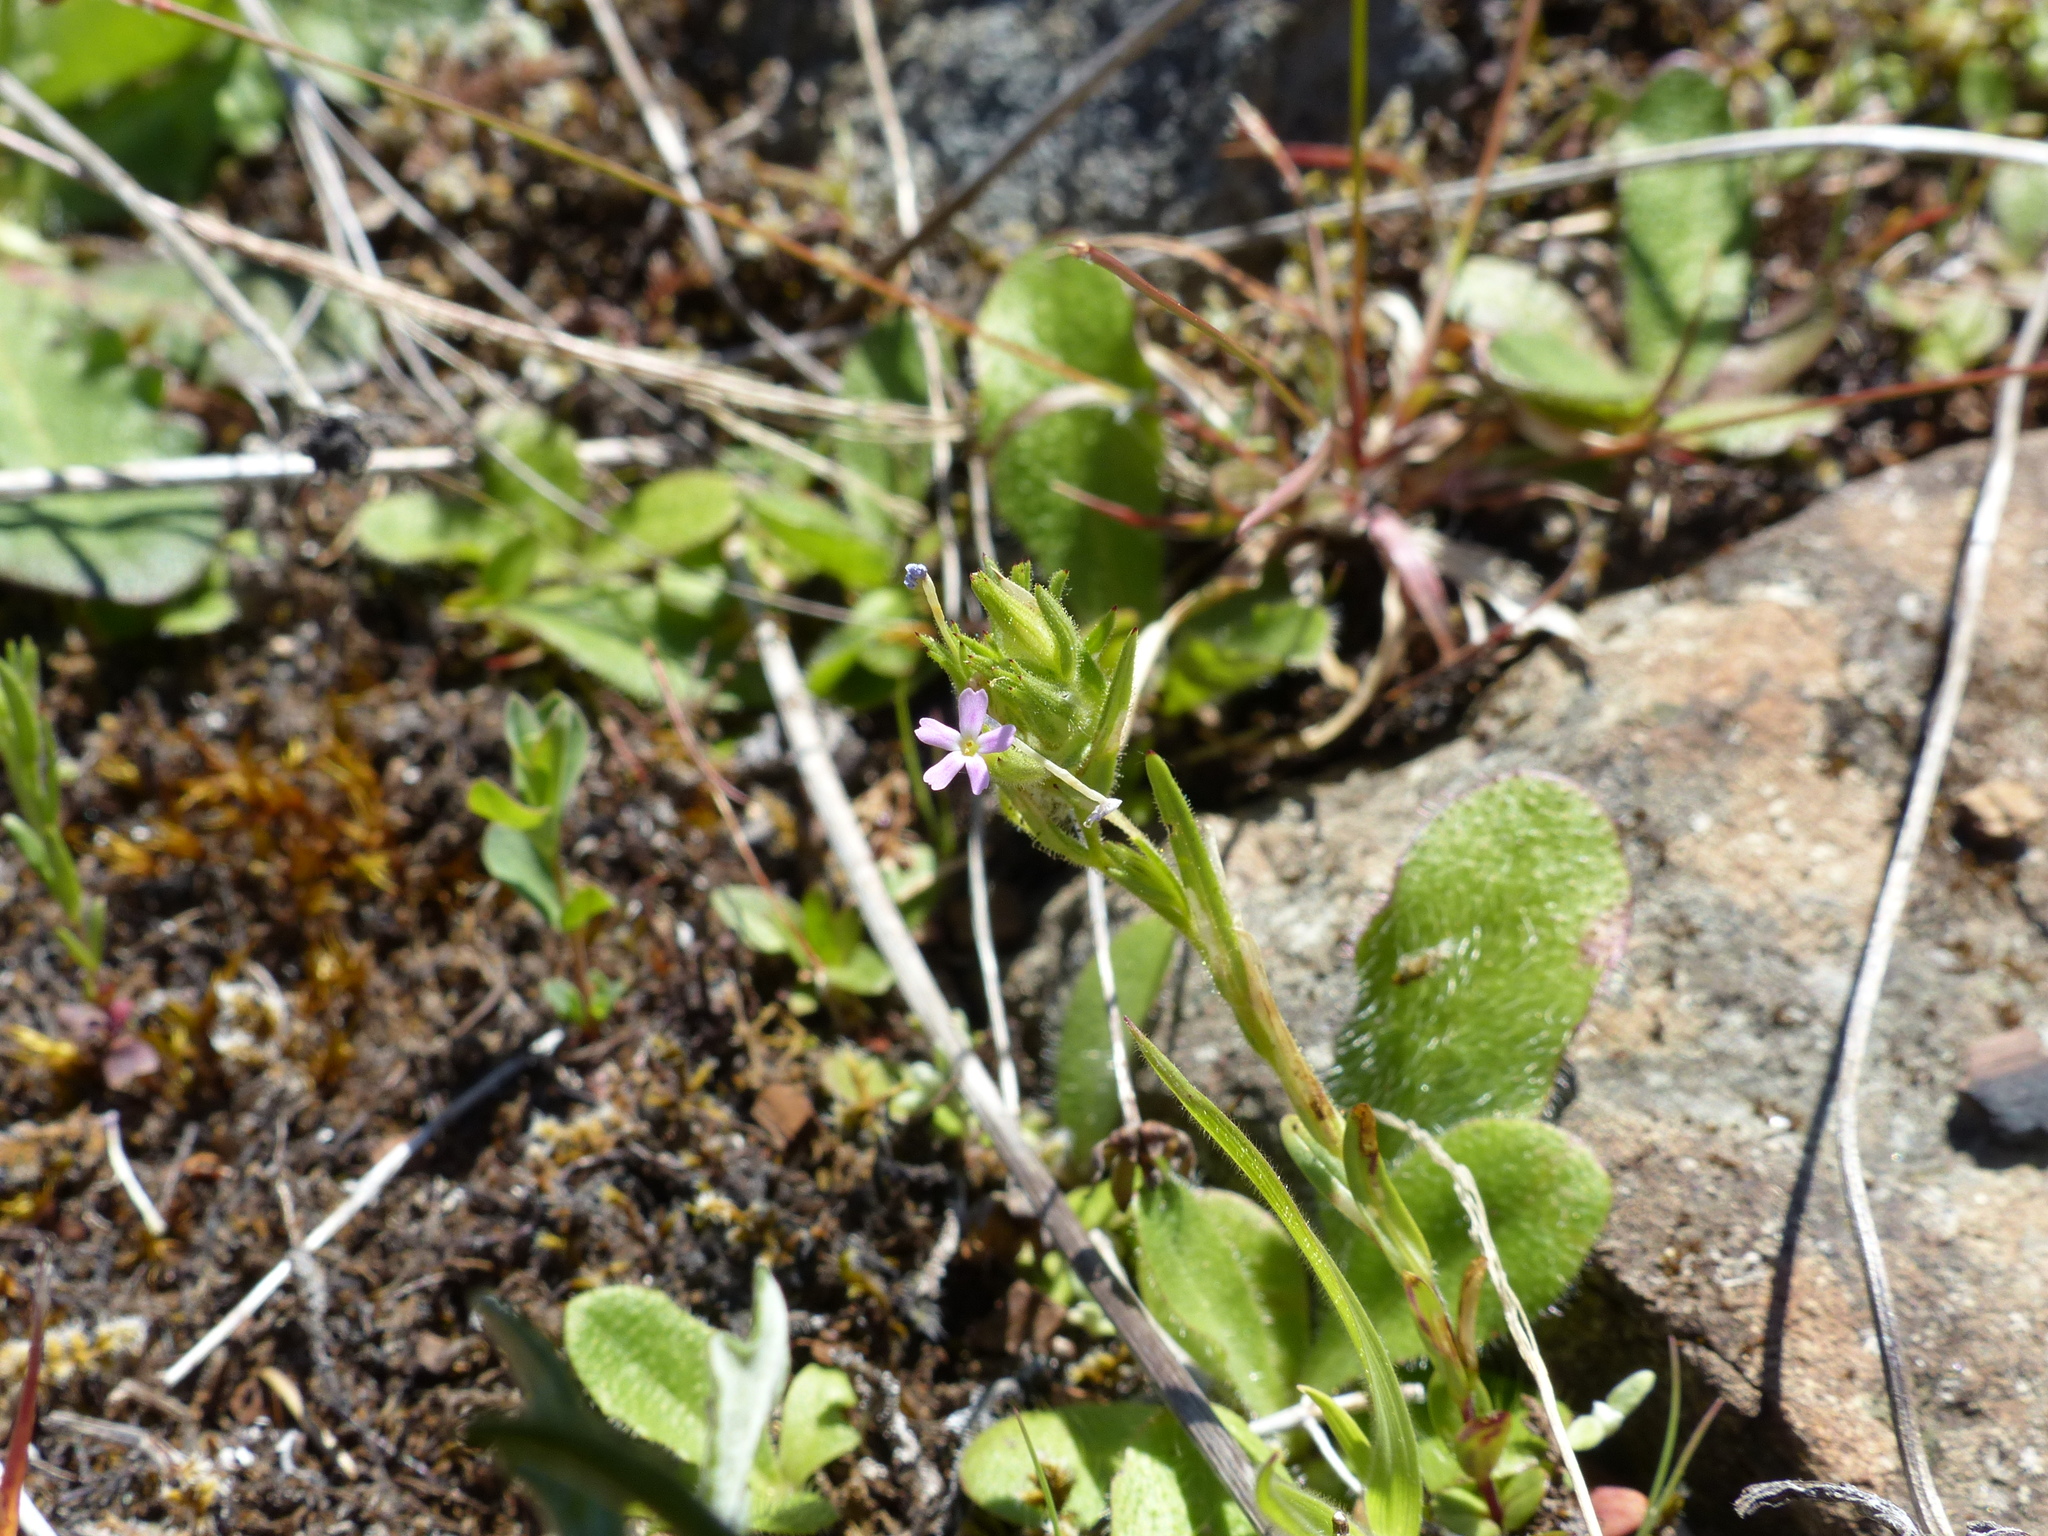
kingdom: Plantae
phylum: Tracheophyta
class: Magnoliopsida
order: Ericales
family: Polemoniaceae
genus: Phlox
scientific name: Phlox gracilis
